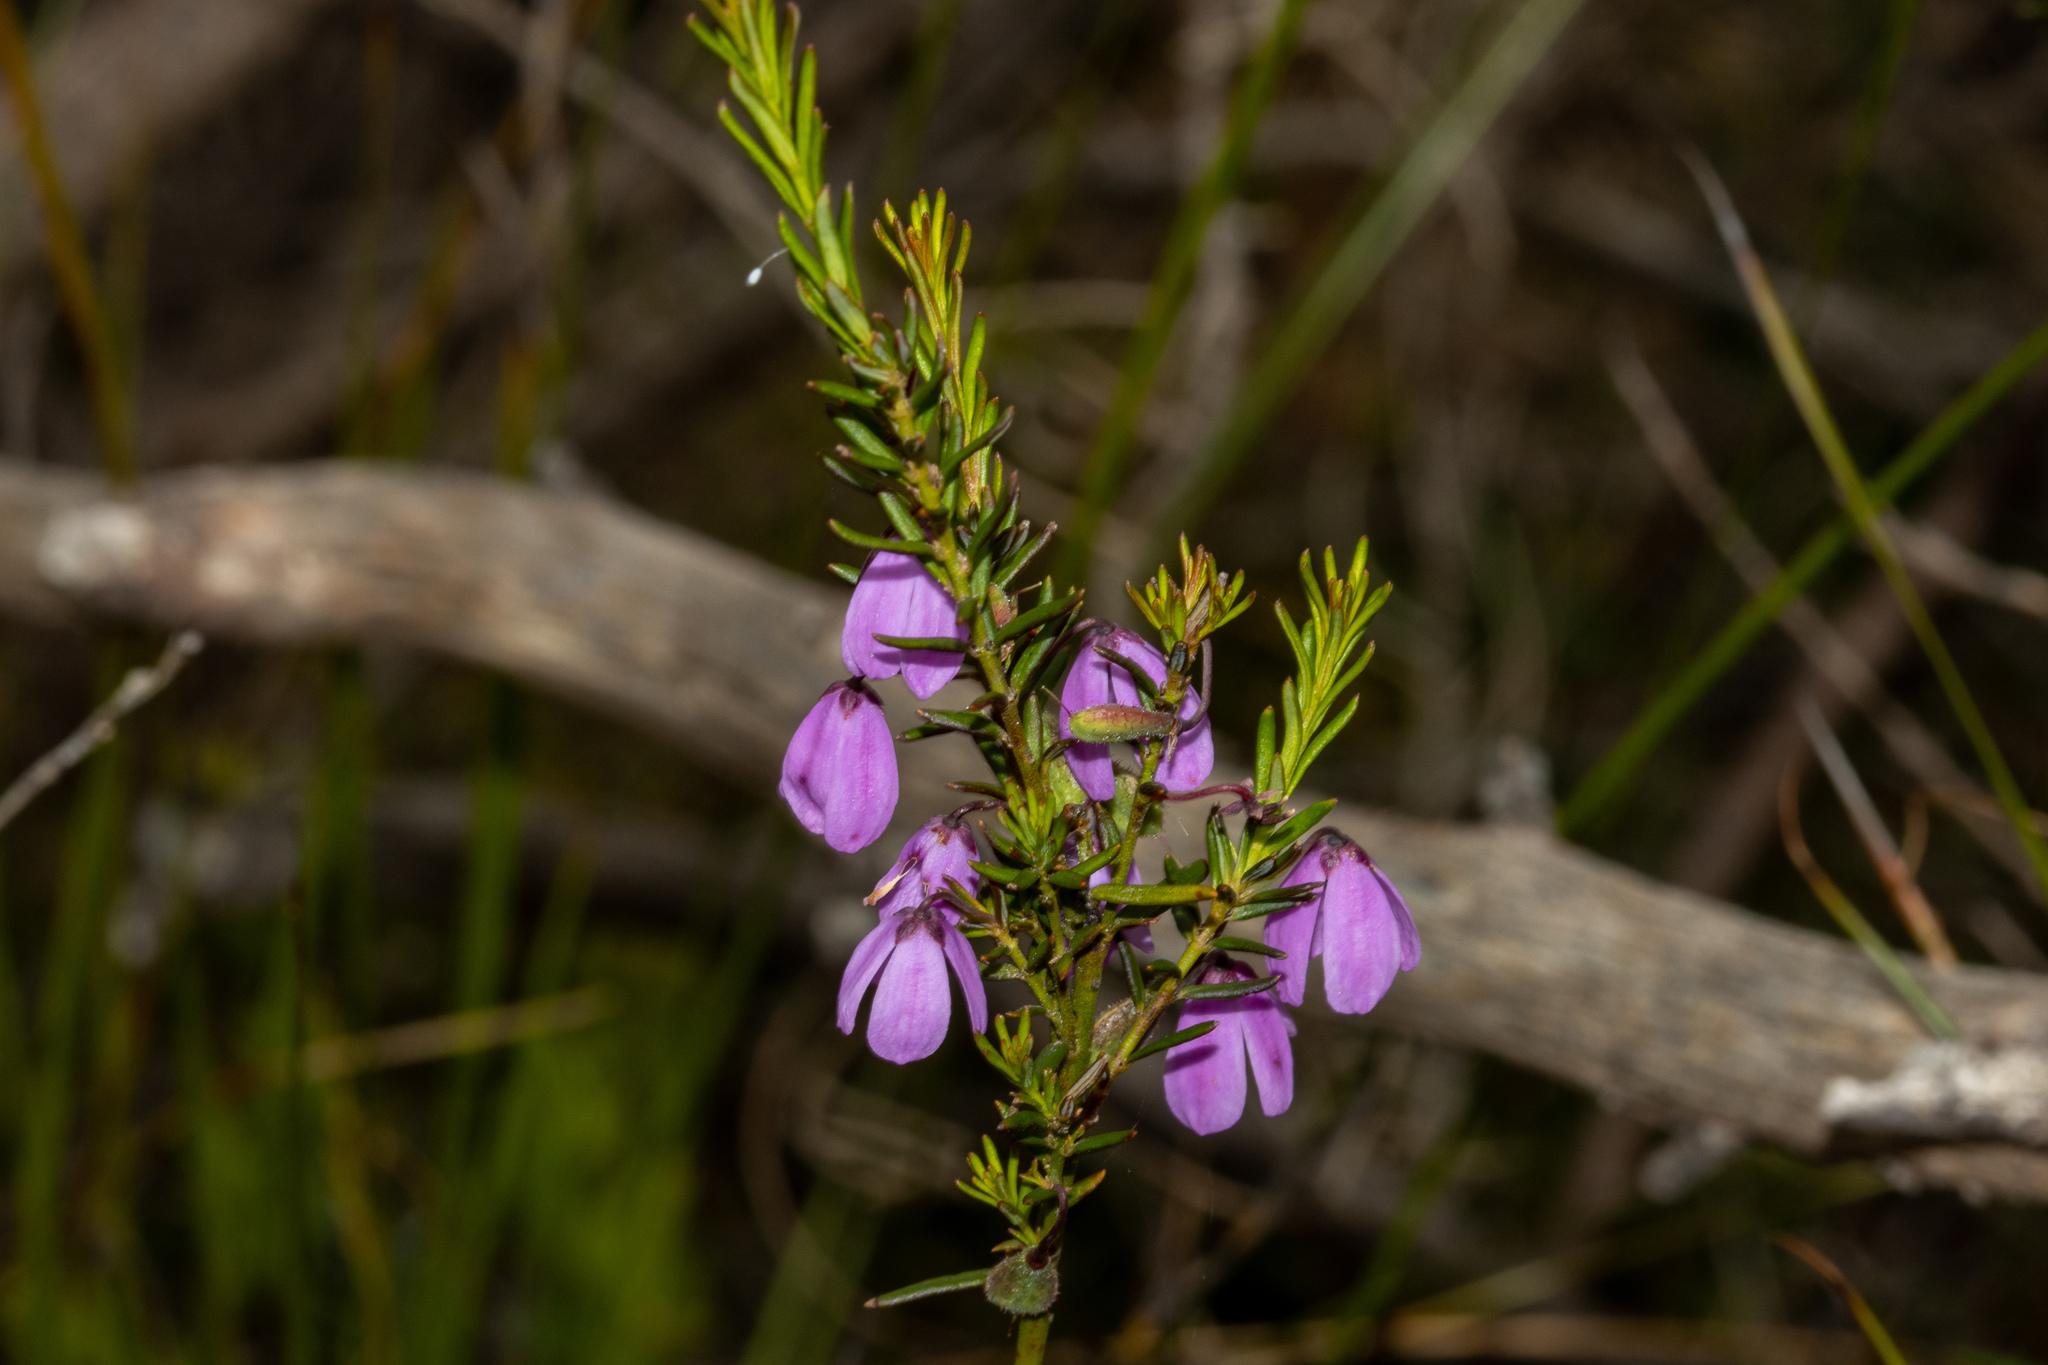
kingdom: Plantae
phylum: Tracheophyta
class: Magnoliopsida
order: Oxalidales
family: Elaeocarpaceae
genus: Tetratheca
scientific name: Tetratheca pilosa
